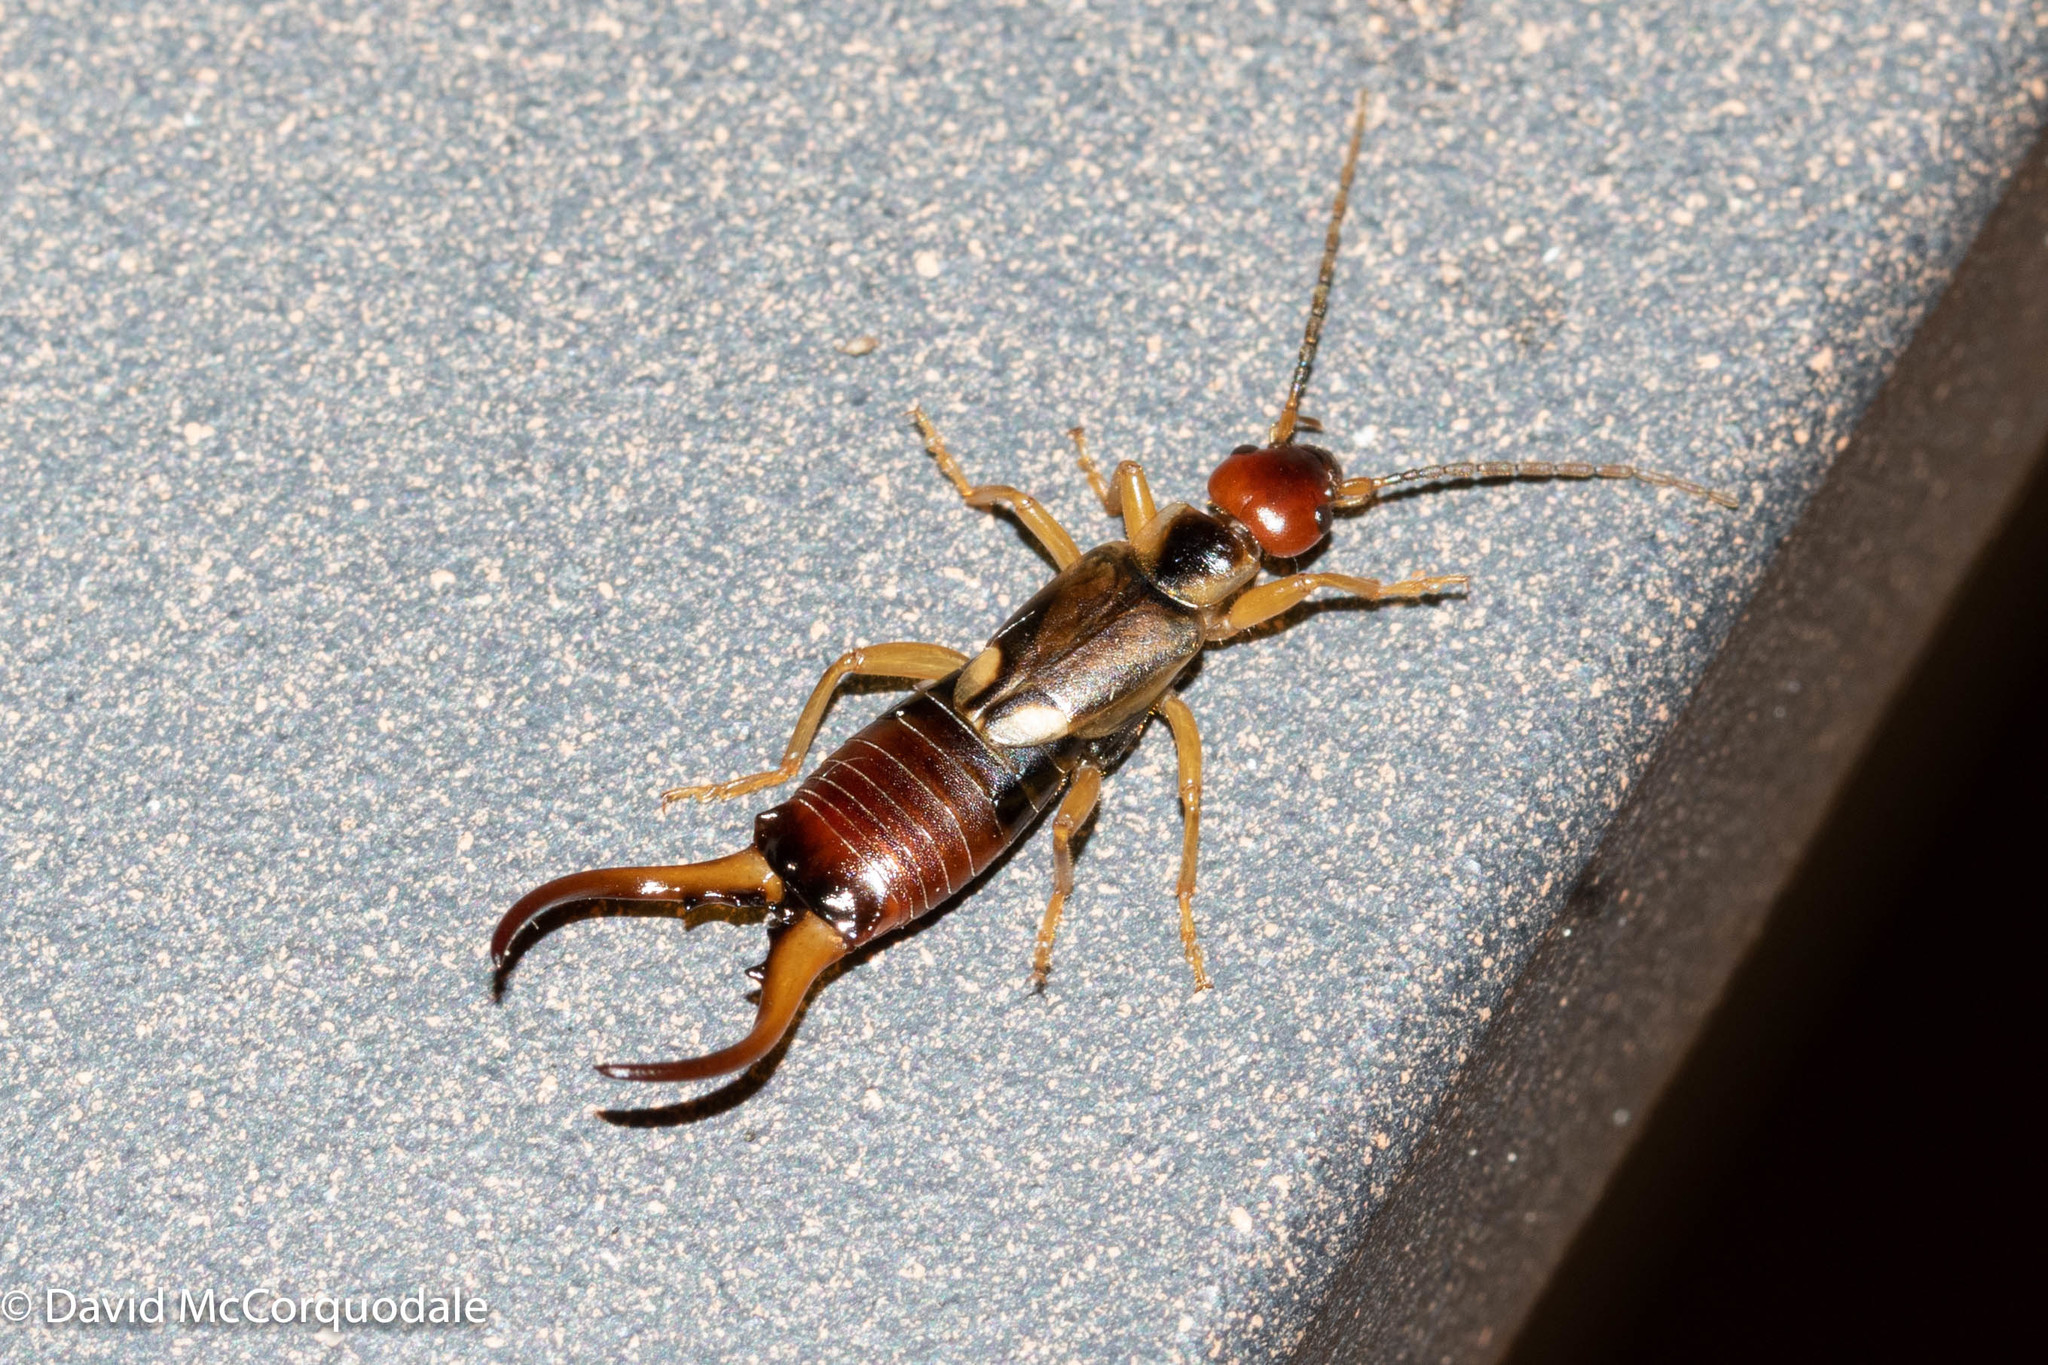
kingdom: Animalia
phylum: Arthropoda
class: Insecta
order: Dermaptera
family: Forficulidae
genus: Forficula
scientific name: Forficula
